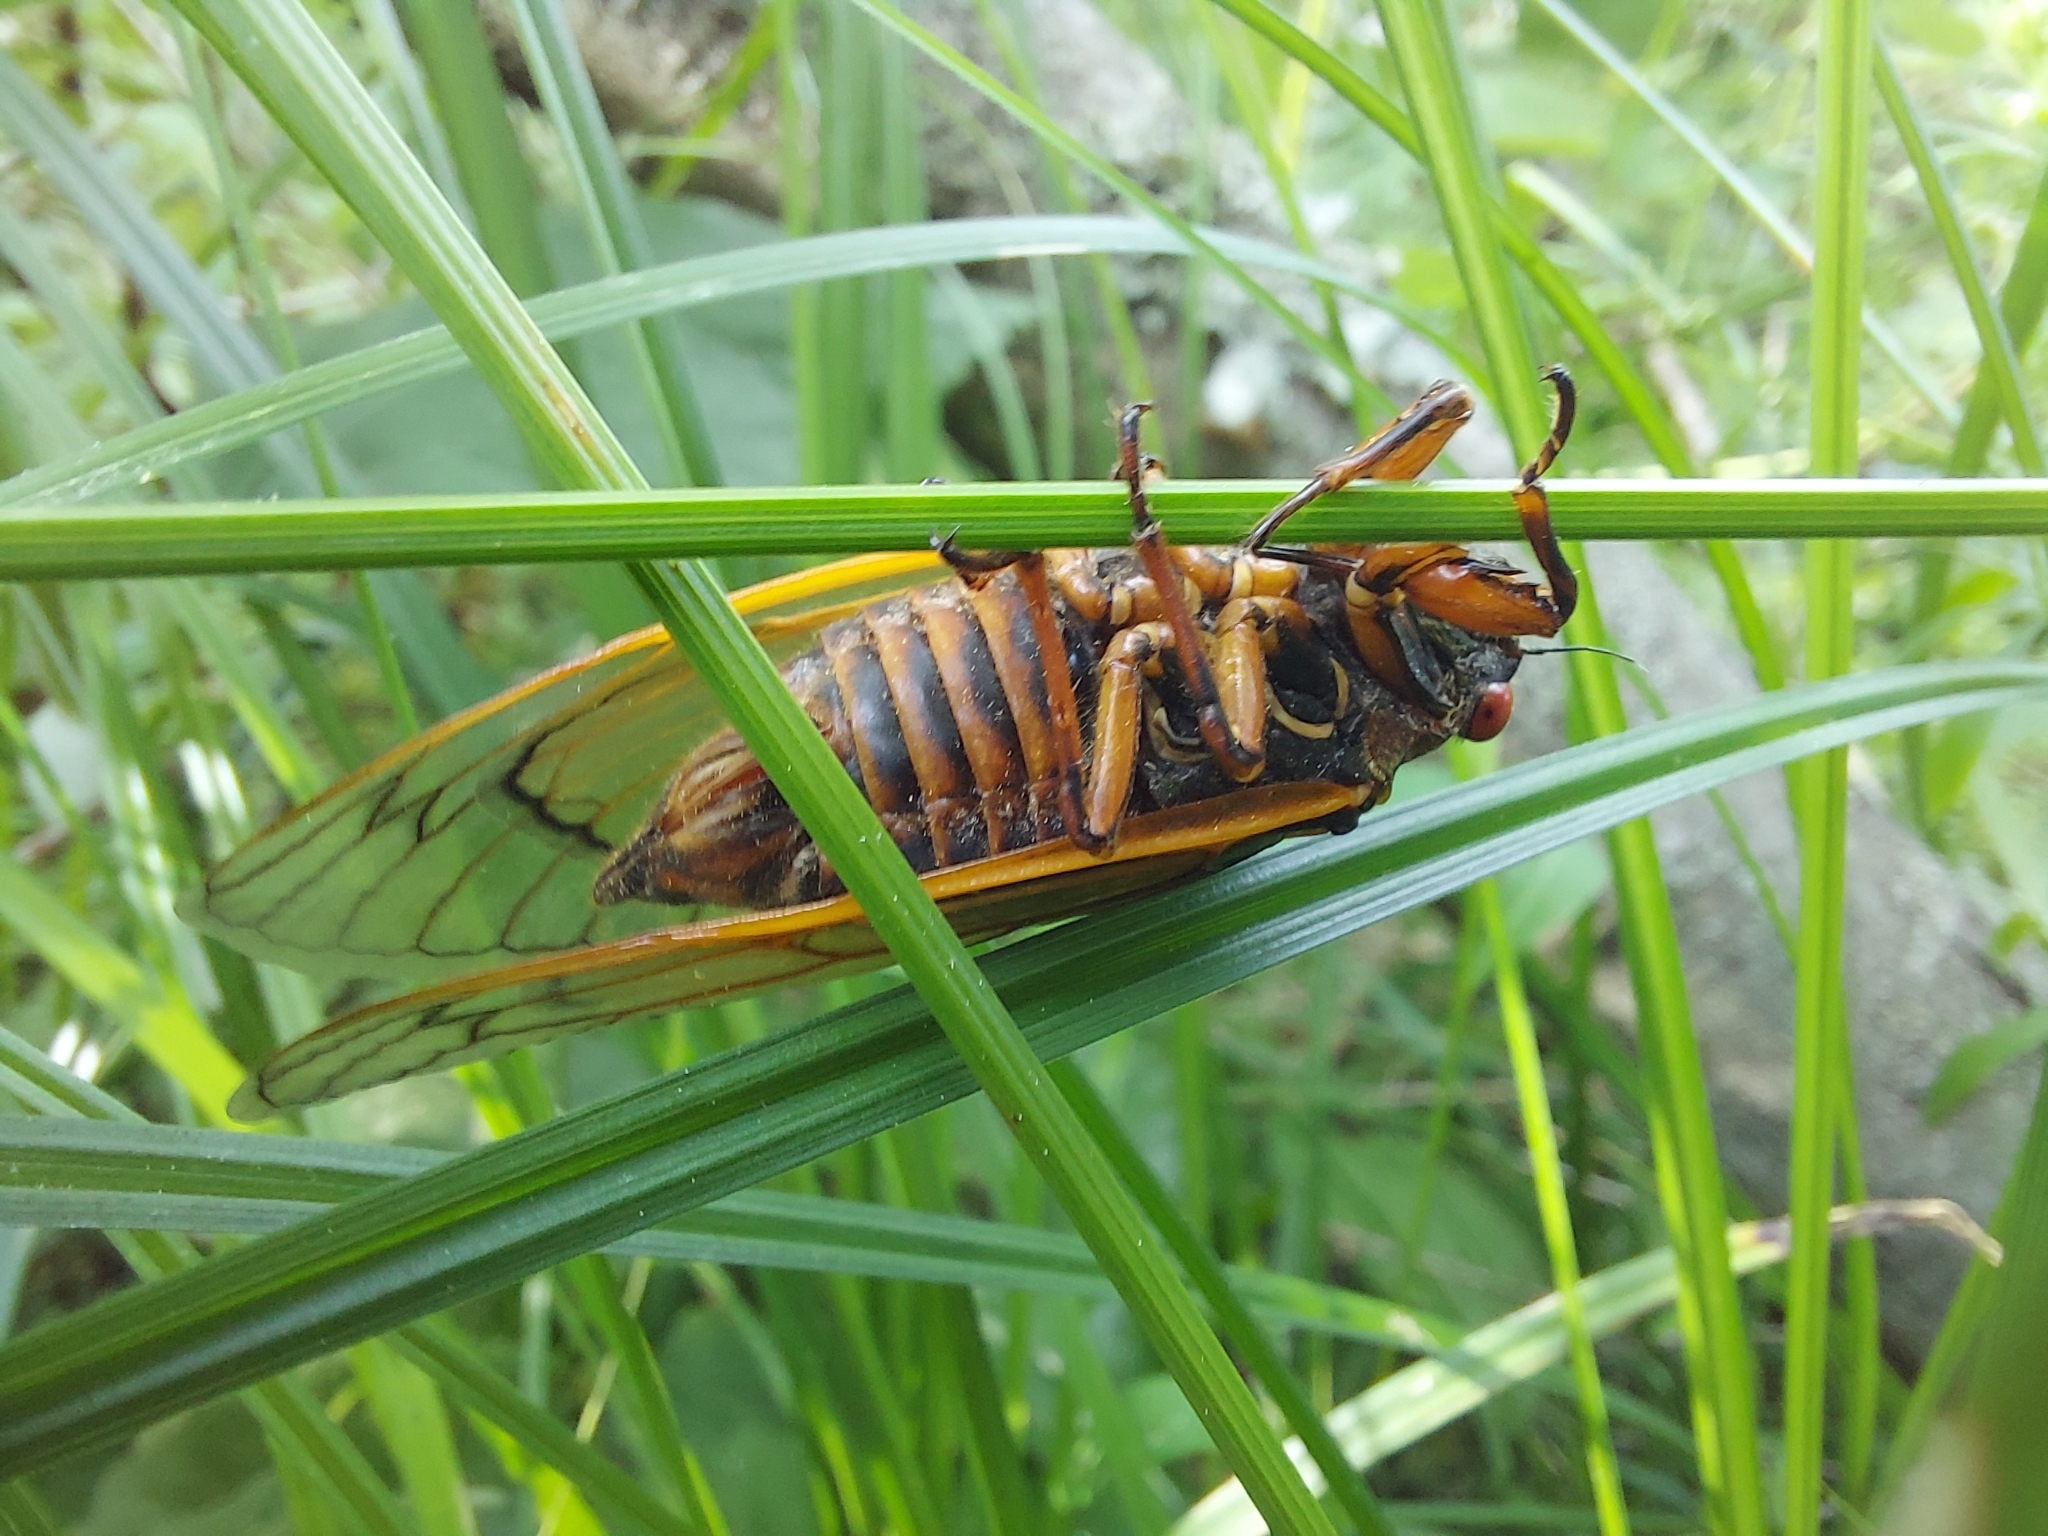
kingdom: Animalia
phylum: Arthropoda
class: Insecta
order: Hemiptera
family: Cicadidae
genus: Magicicada
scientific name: Magicicada septendecim
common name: Periodical cicada
